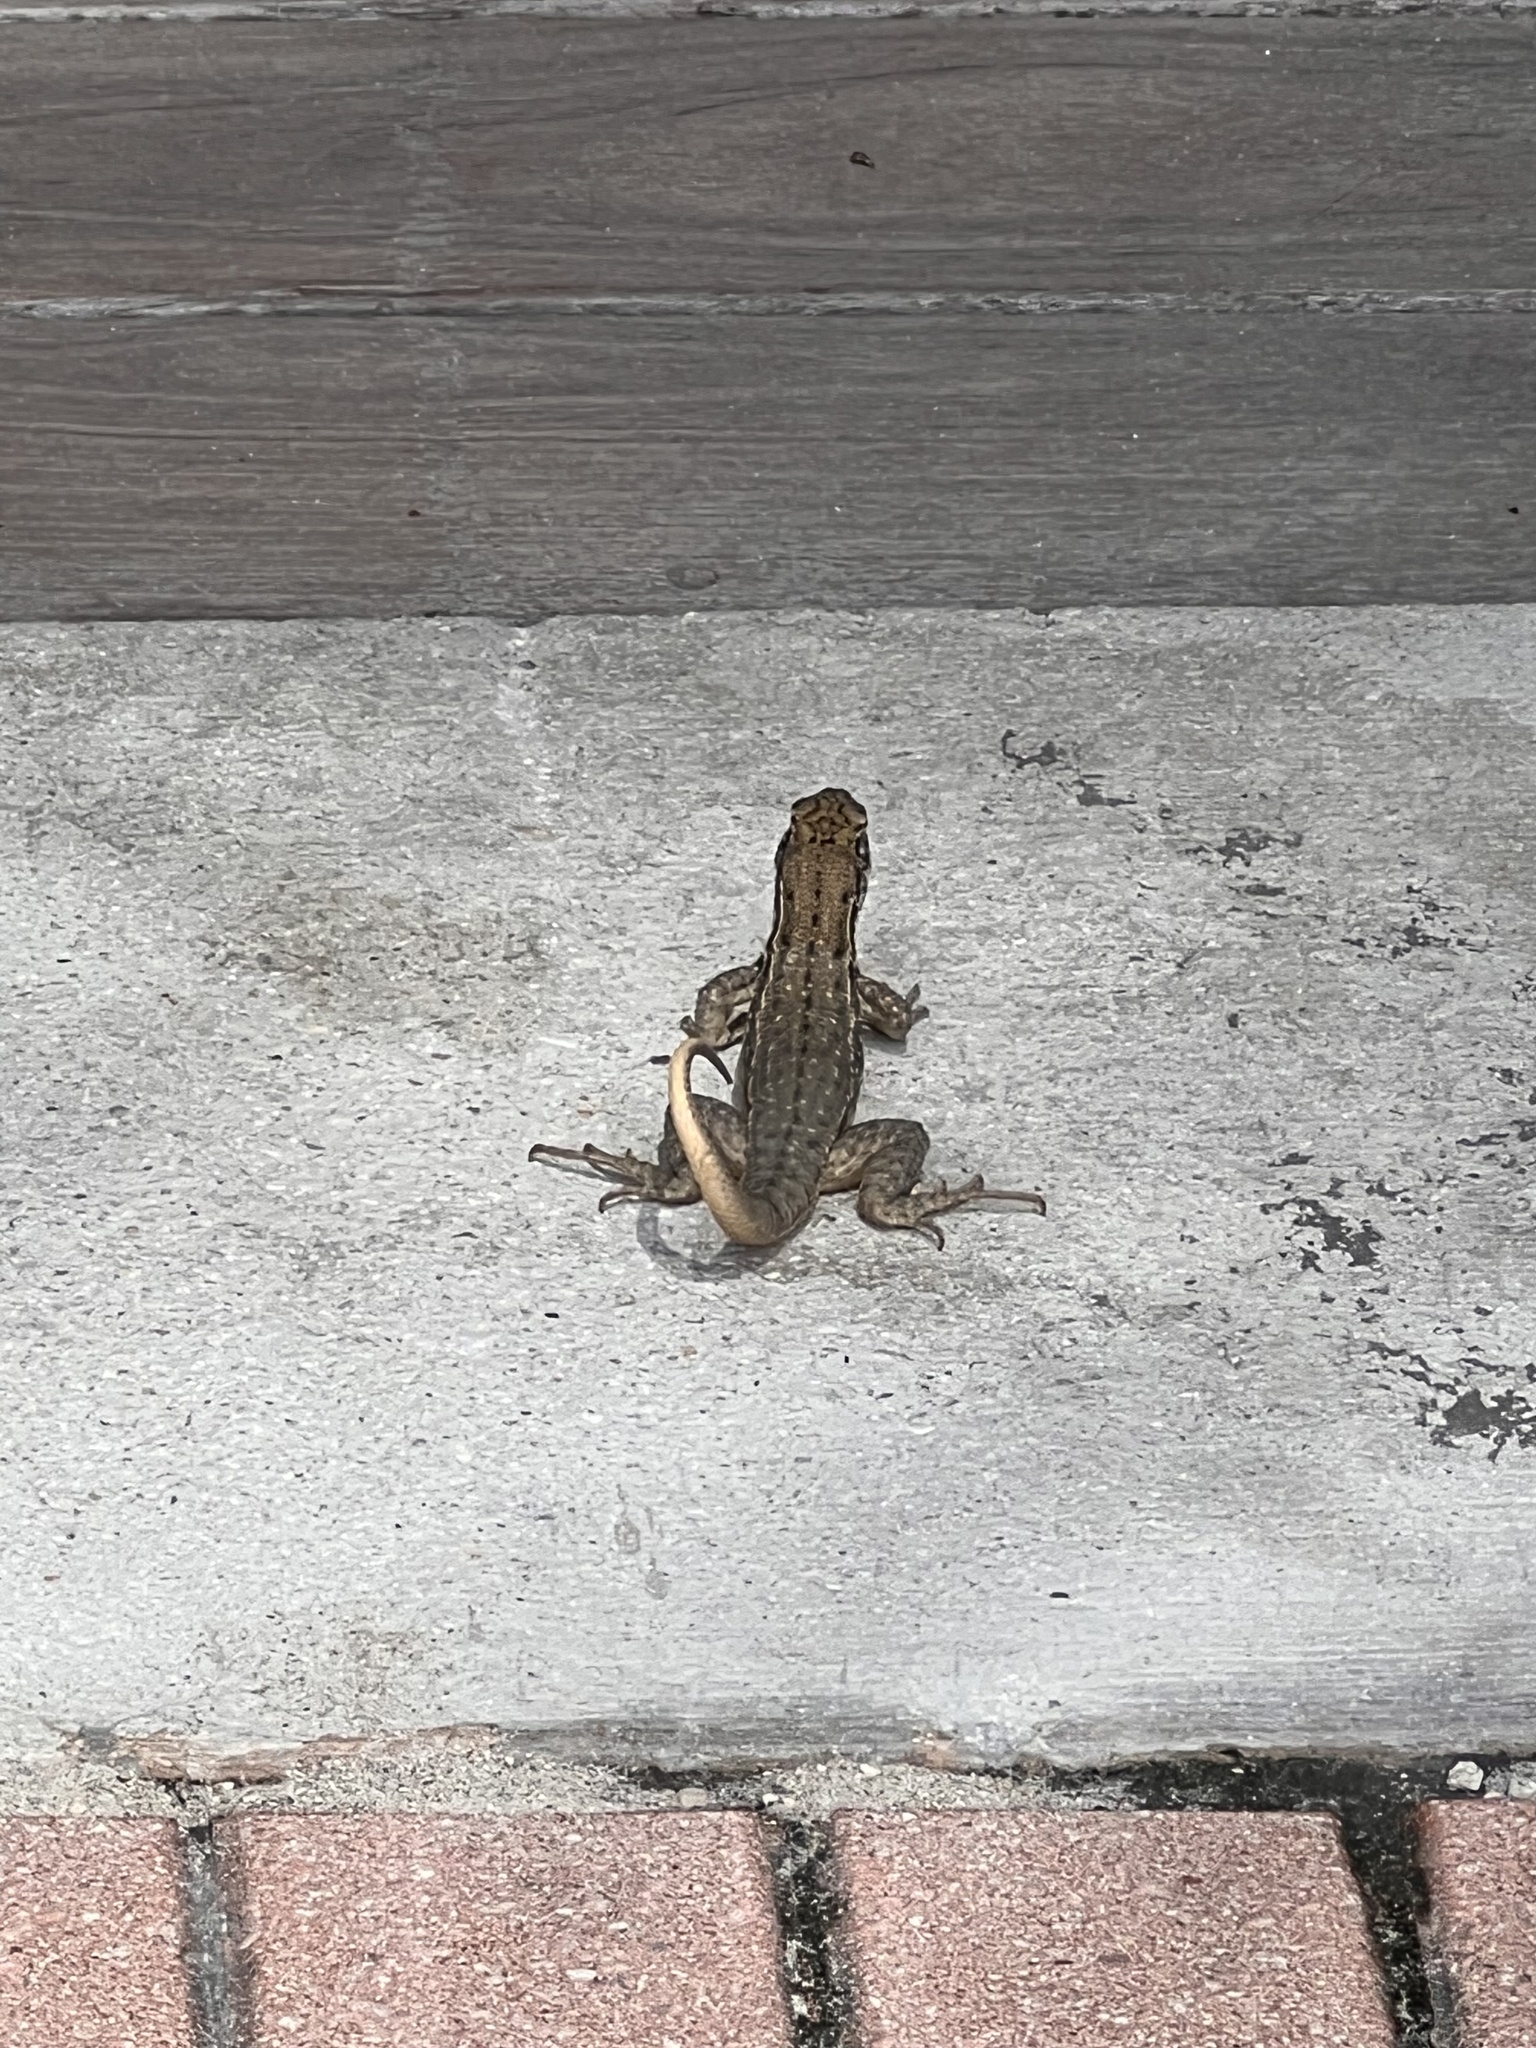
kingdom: Animalia
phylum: Chordata
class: Squamata
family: Leiocephalidae
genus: Leiocephalus
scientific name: Leiocephalus carinatus
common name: Northern curly-tailed lizard
